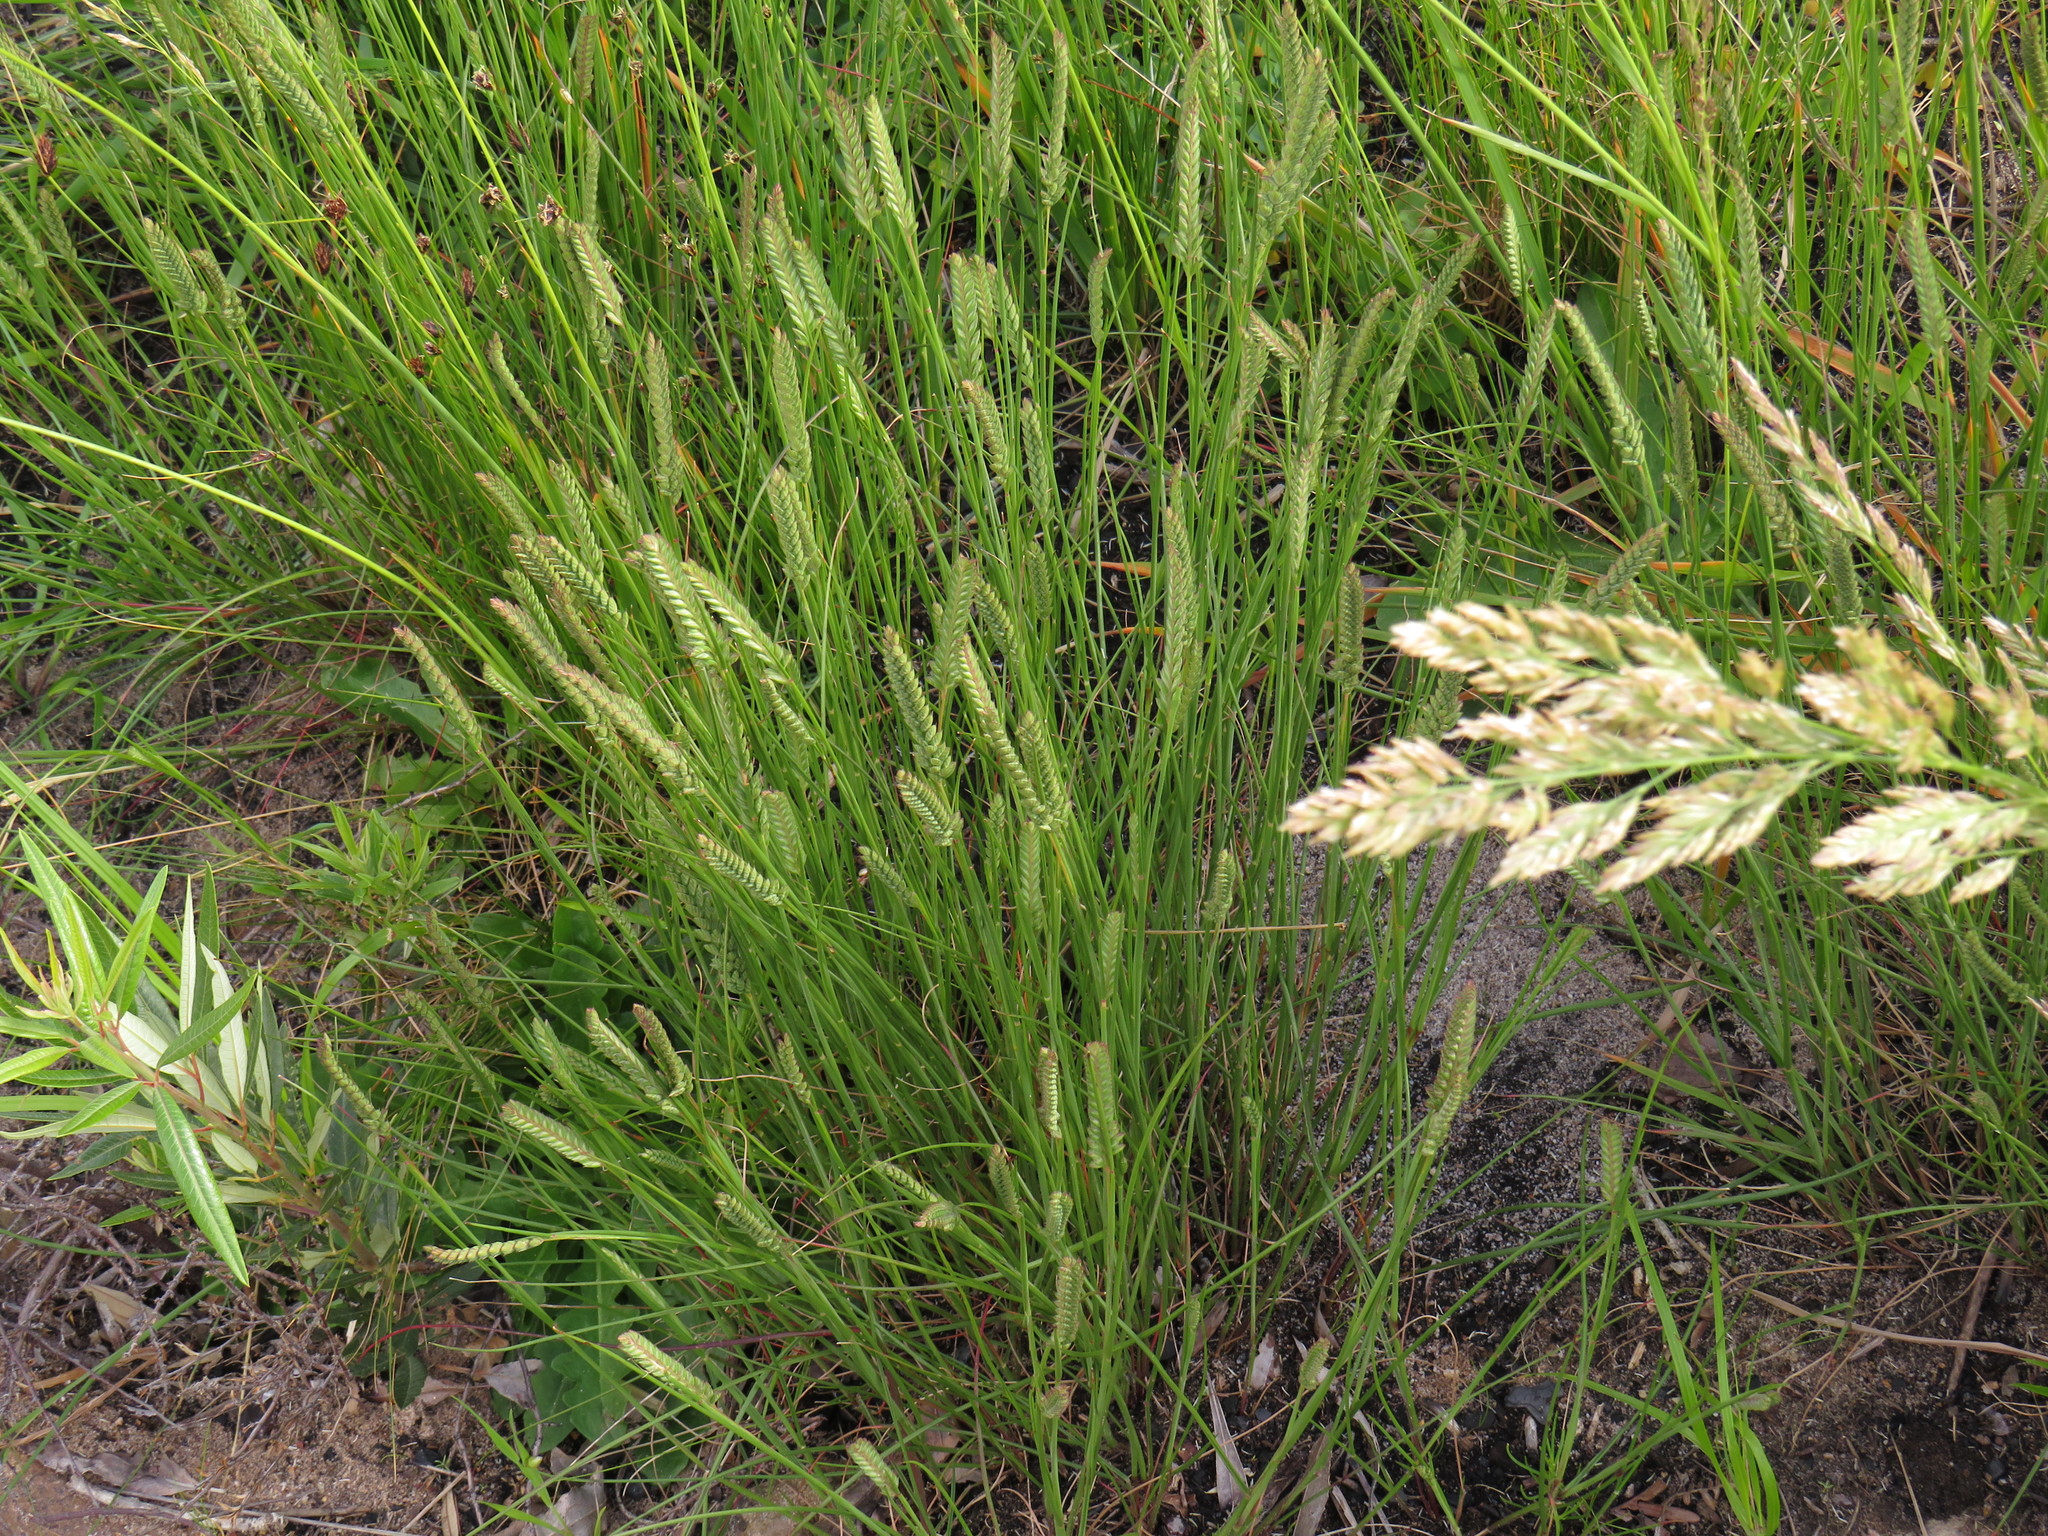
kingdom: Plantae
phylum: Tracheophyta
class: Liliopsida
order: Poales
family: Poaceae
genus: Tribolium
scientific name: Tribolium uniolae
